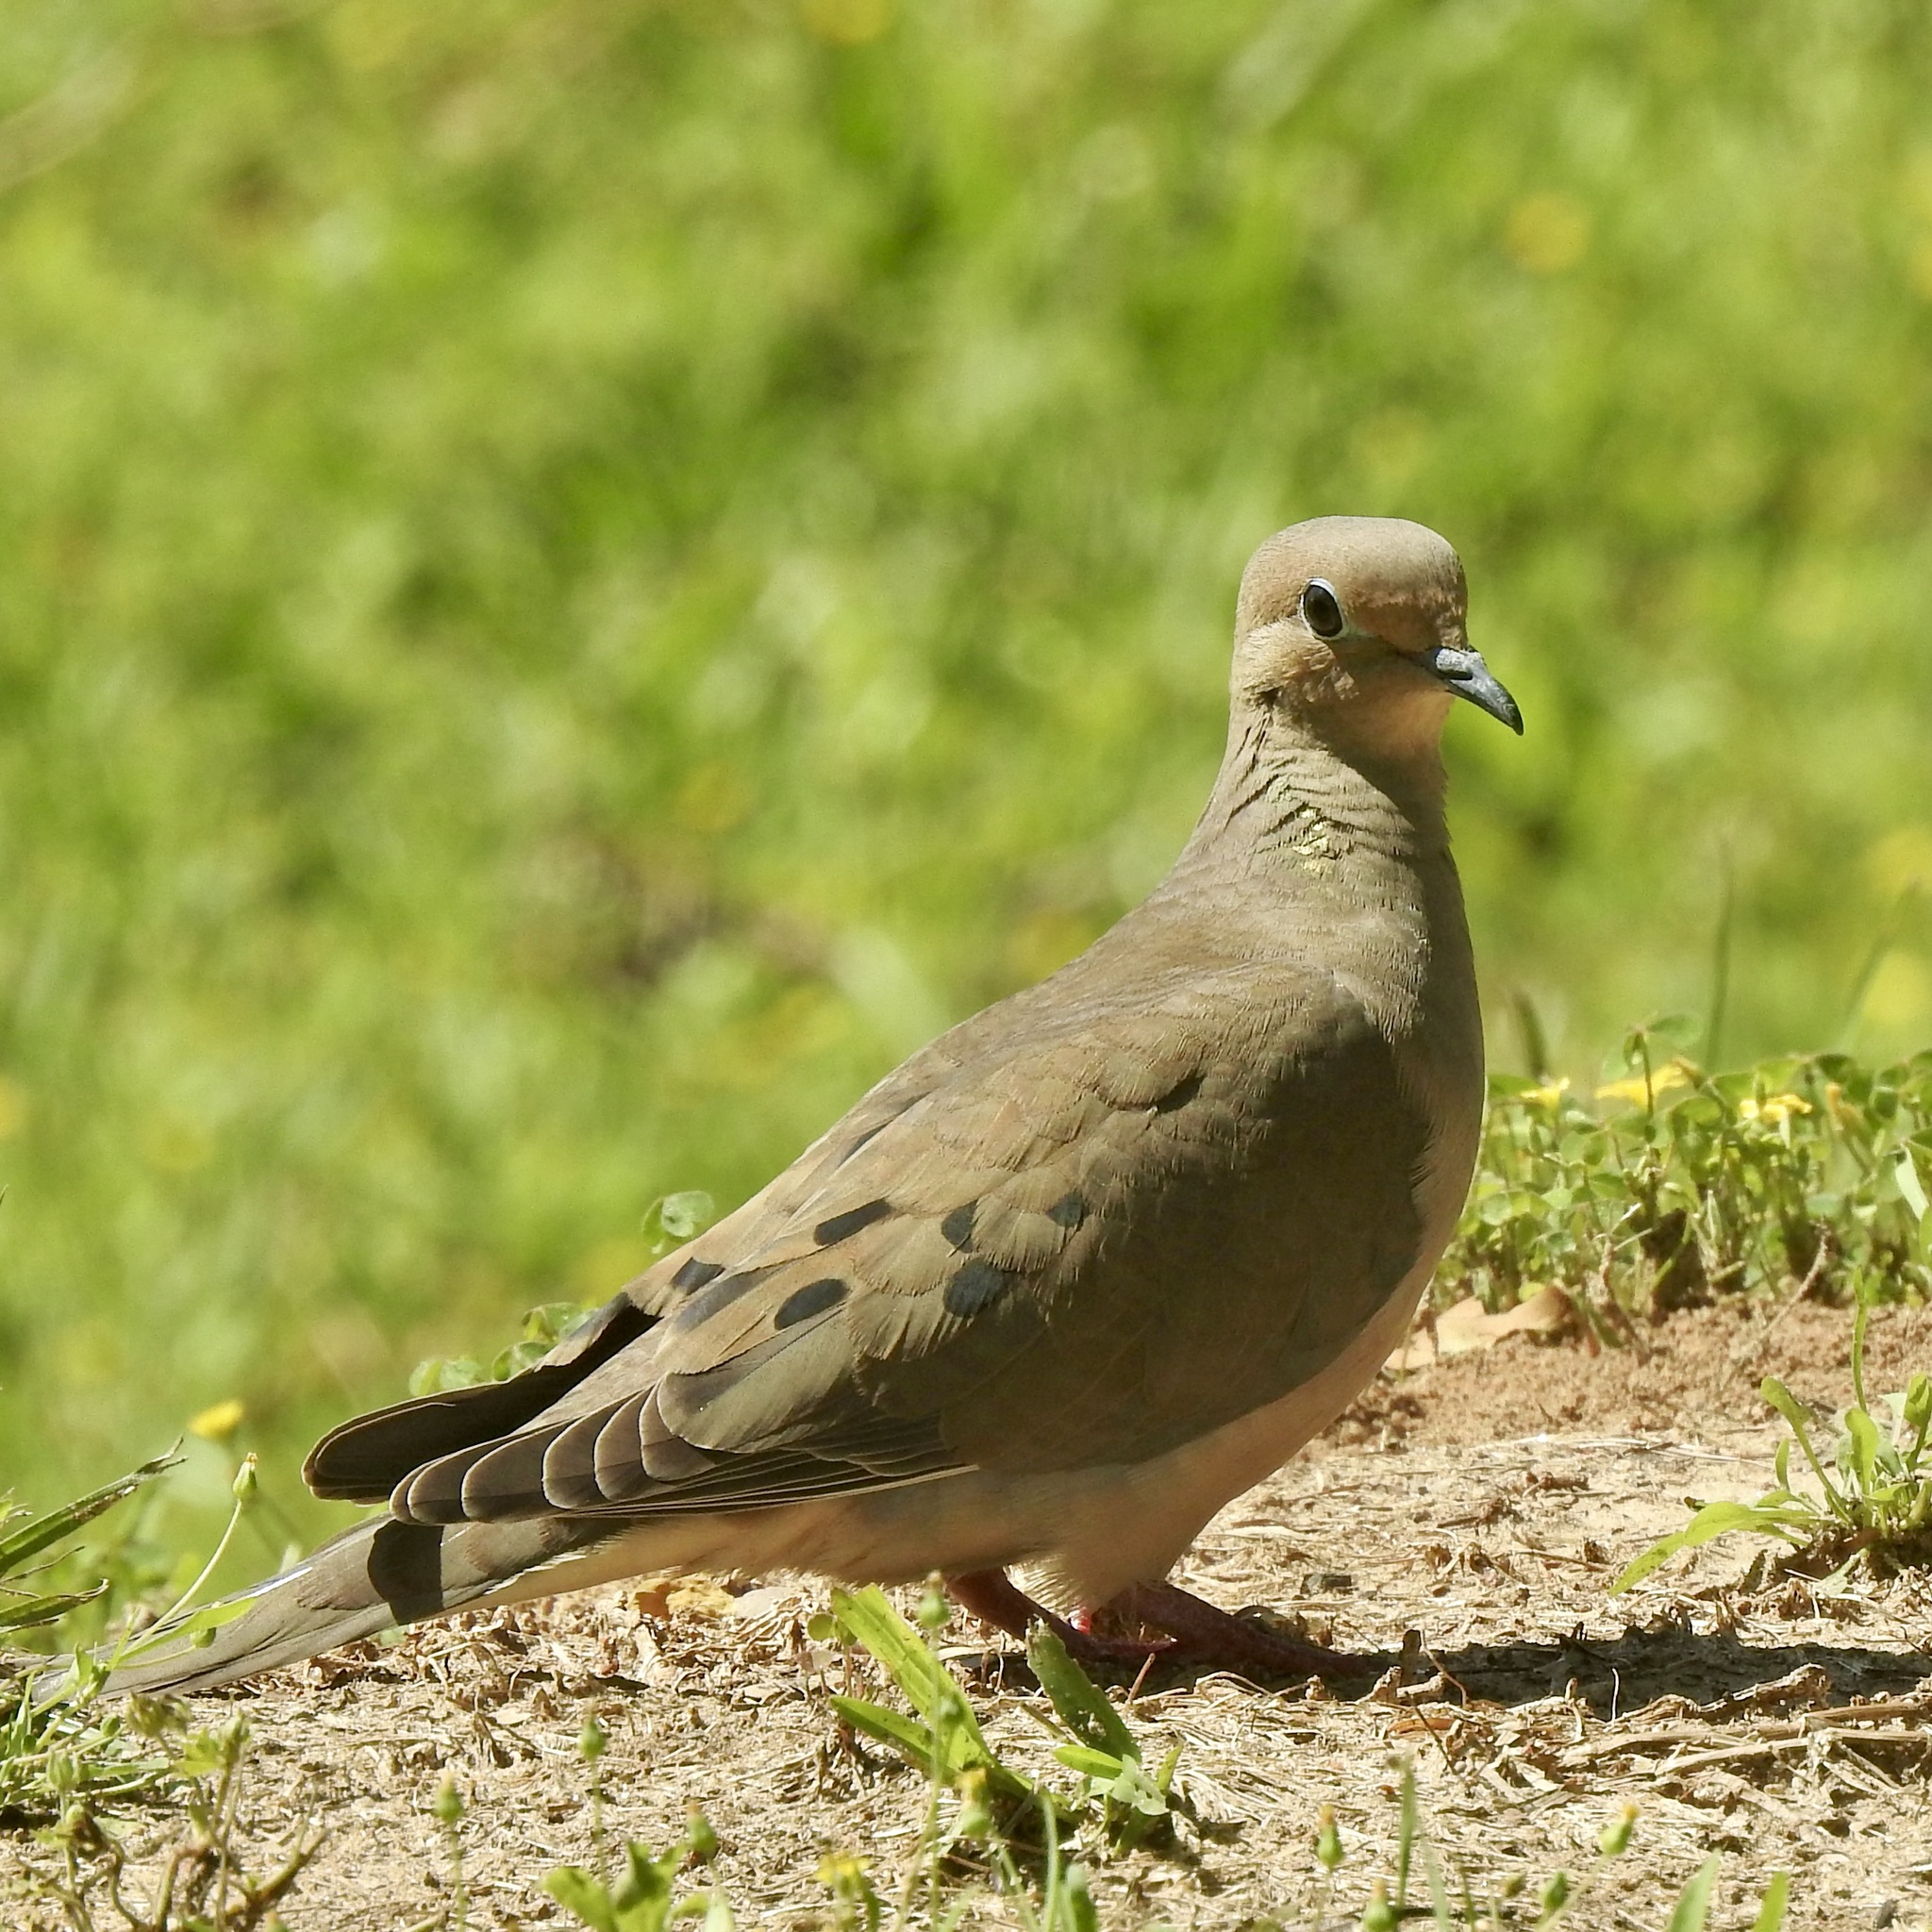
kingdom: Animalia
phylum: Chordata
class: Aves
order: Columbiformes
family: Columbidae
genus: Zenaida
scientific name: Zenaida macroura
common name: Mourning dove
